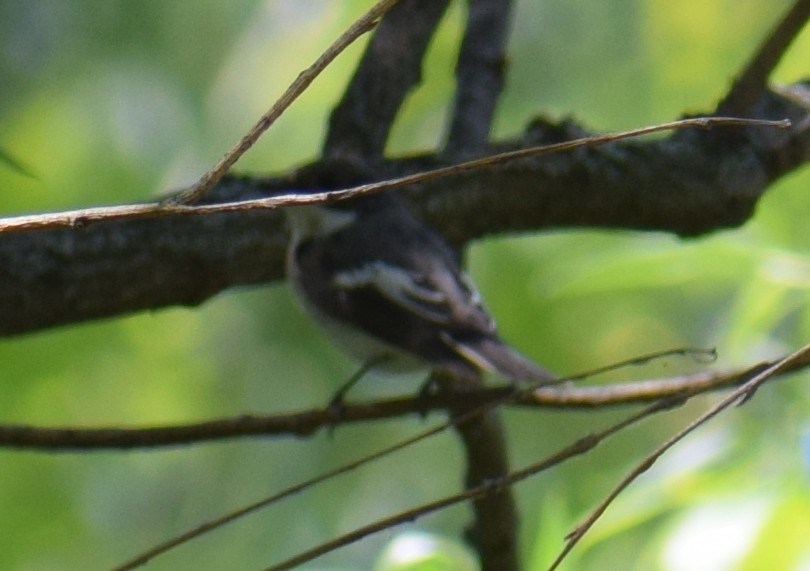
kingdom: Animalia
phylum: Chordata
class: Aves
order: Passeriformes
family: Muscicapidae
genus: Ficedula
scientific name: Ficedula hypoleuca
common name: European pied flycatcher
